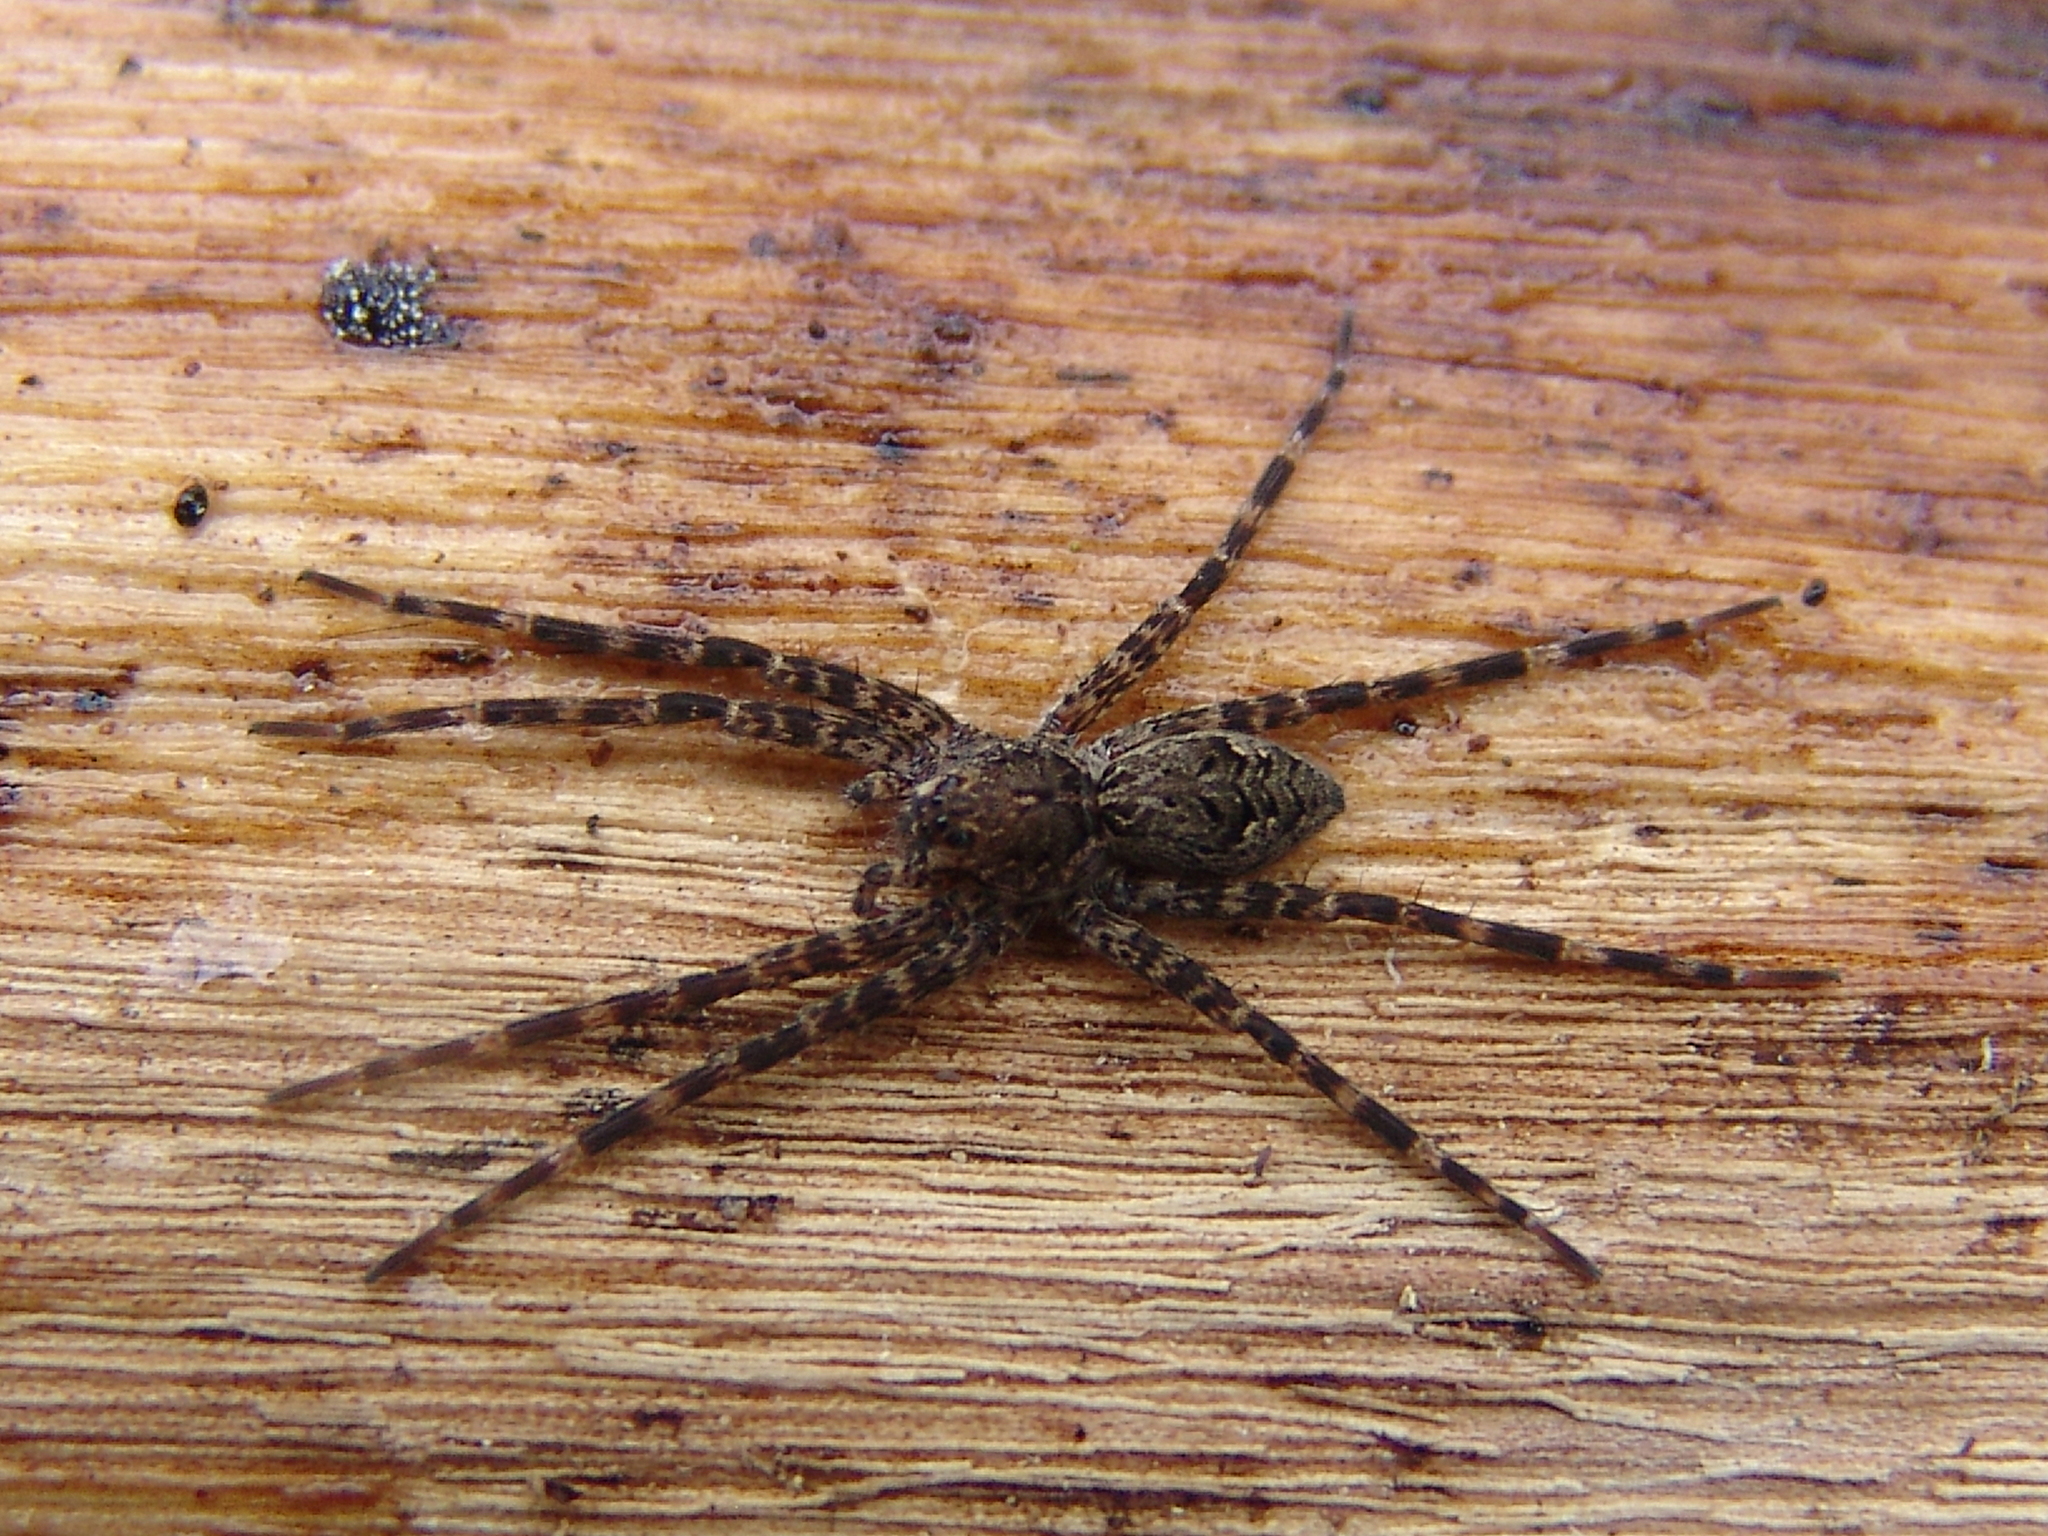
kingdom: Animalia
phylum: Arthropoda
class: Arachnida
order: Araneae
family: Pisauridae
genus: Dolomedes
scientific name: Dolomedes tenebrosus
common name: Dark fishing spider
